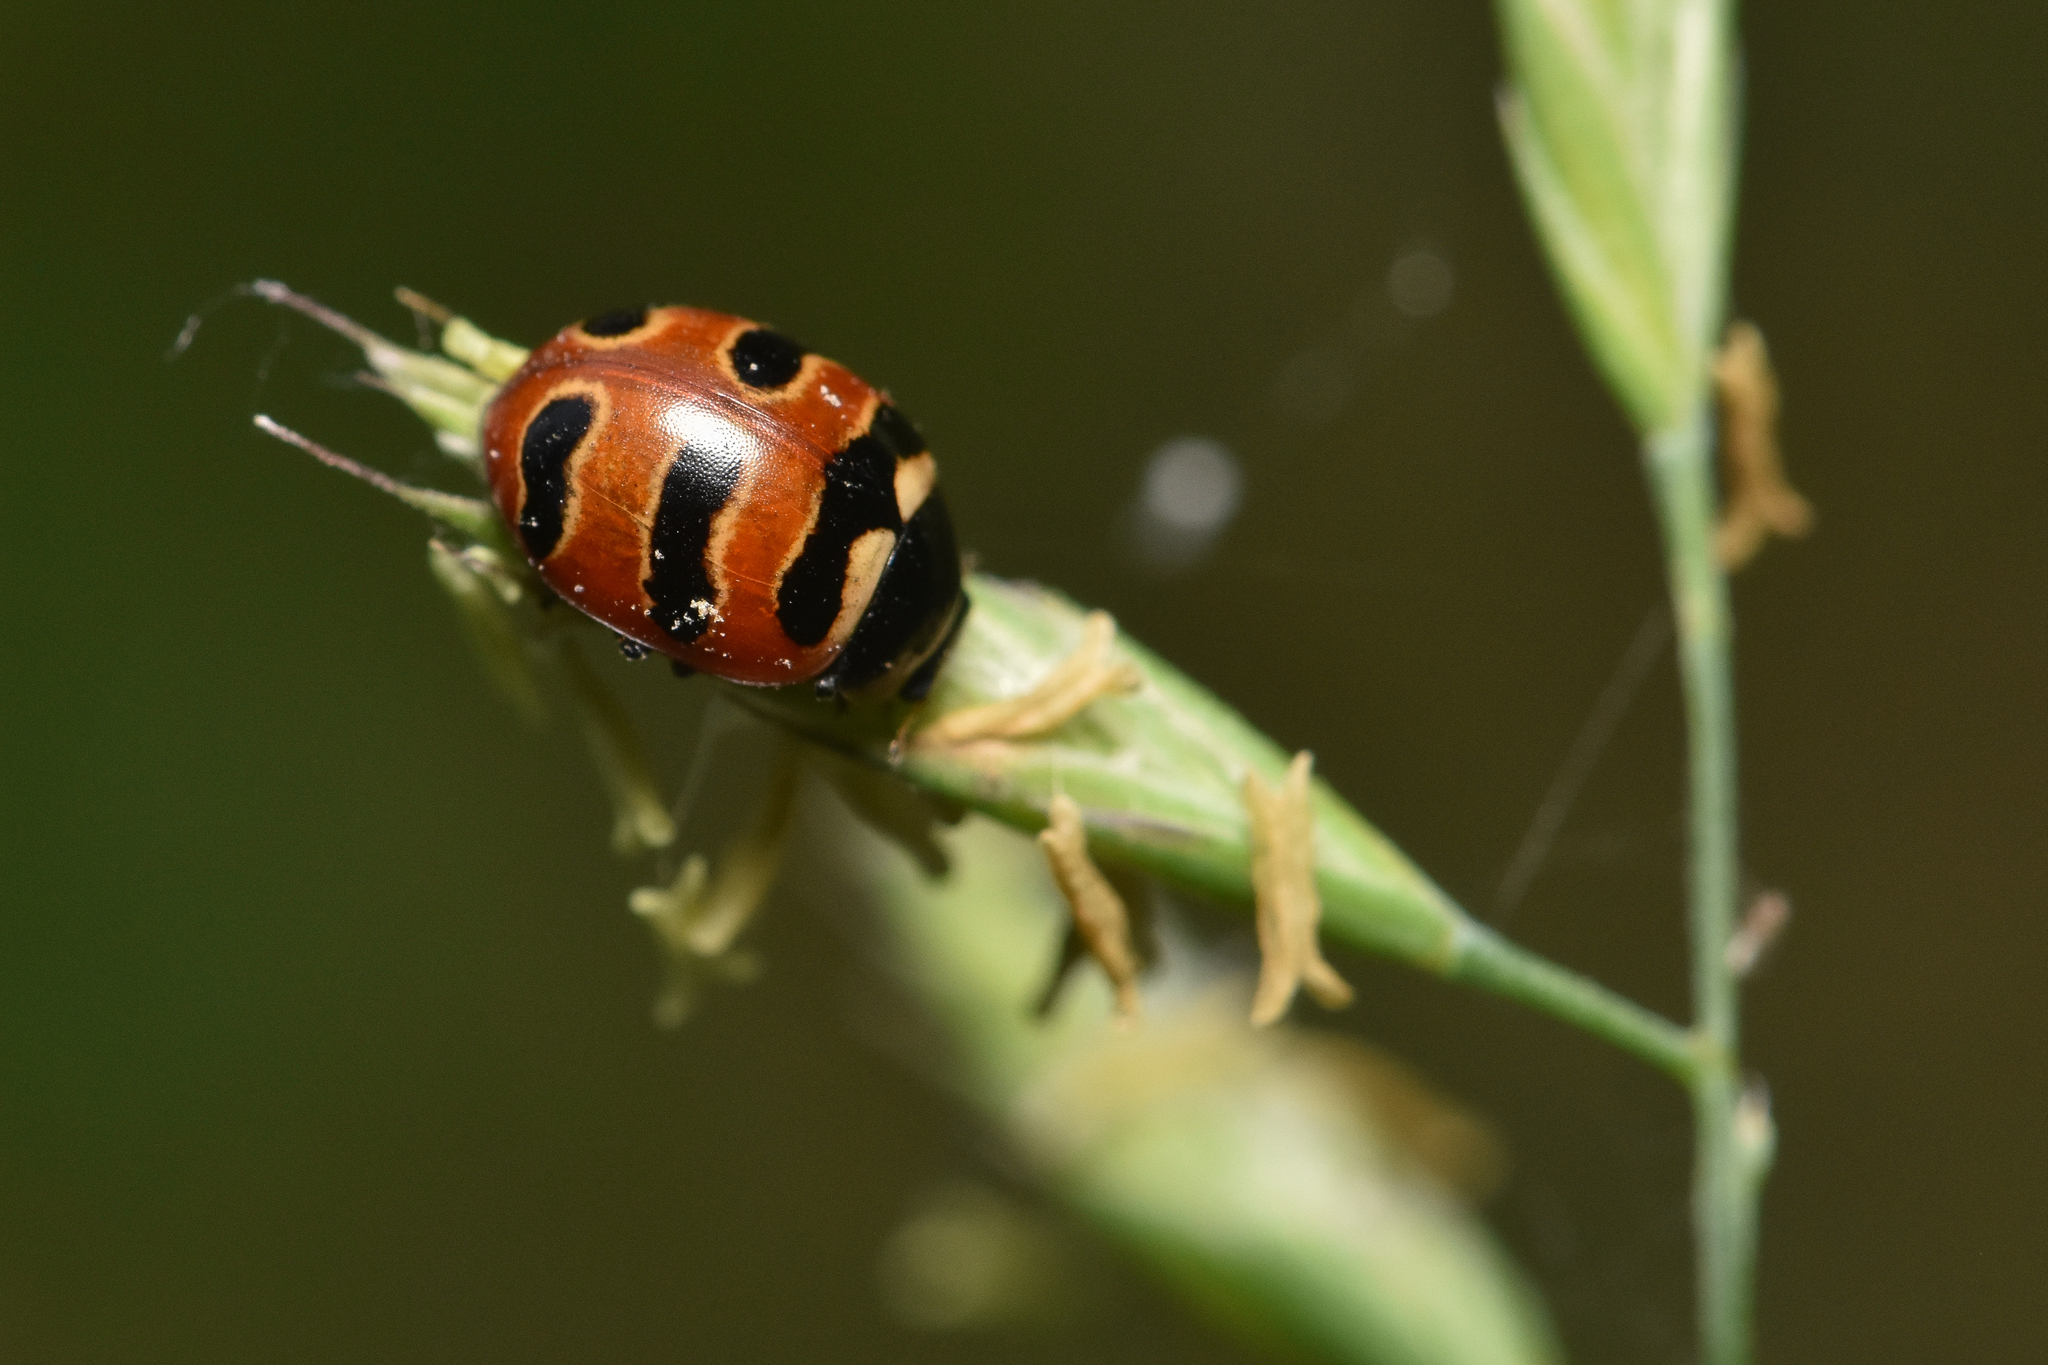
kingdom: Animalia
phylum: Arthropoda
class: Insecta
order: Coleoptera
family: Coccinellidae
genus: Coccinella
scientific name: Coccinella trifasciata
